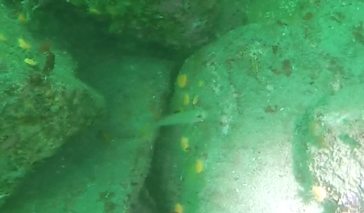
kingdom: Animalia
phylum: Chordata
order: Perciformes
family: Gobiidae
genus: Rhinogobiops
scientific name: Rhinogobiops nicholsii
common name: Blackeye goby
